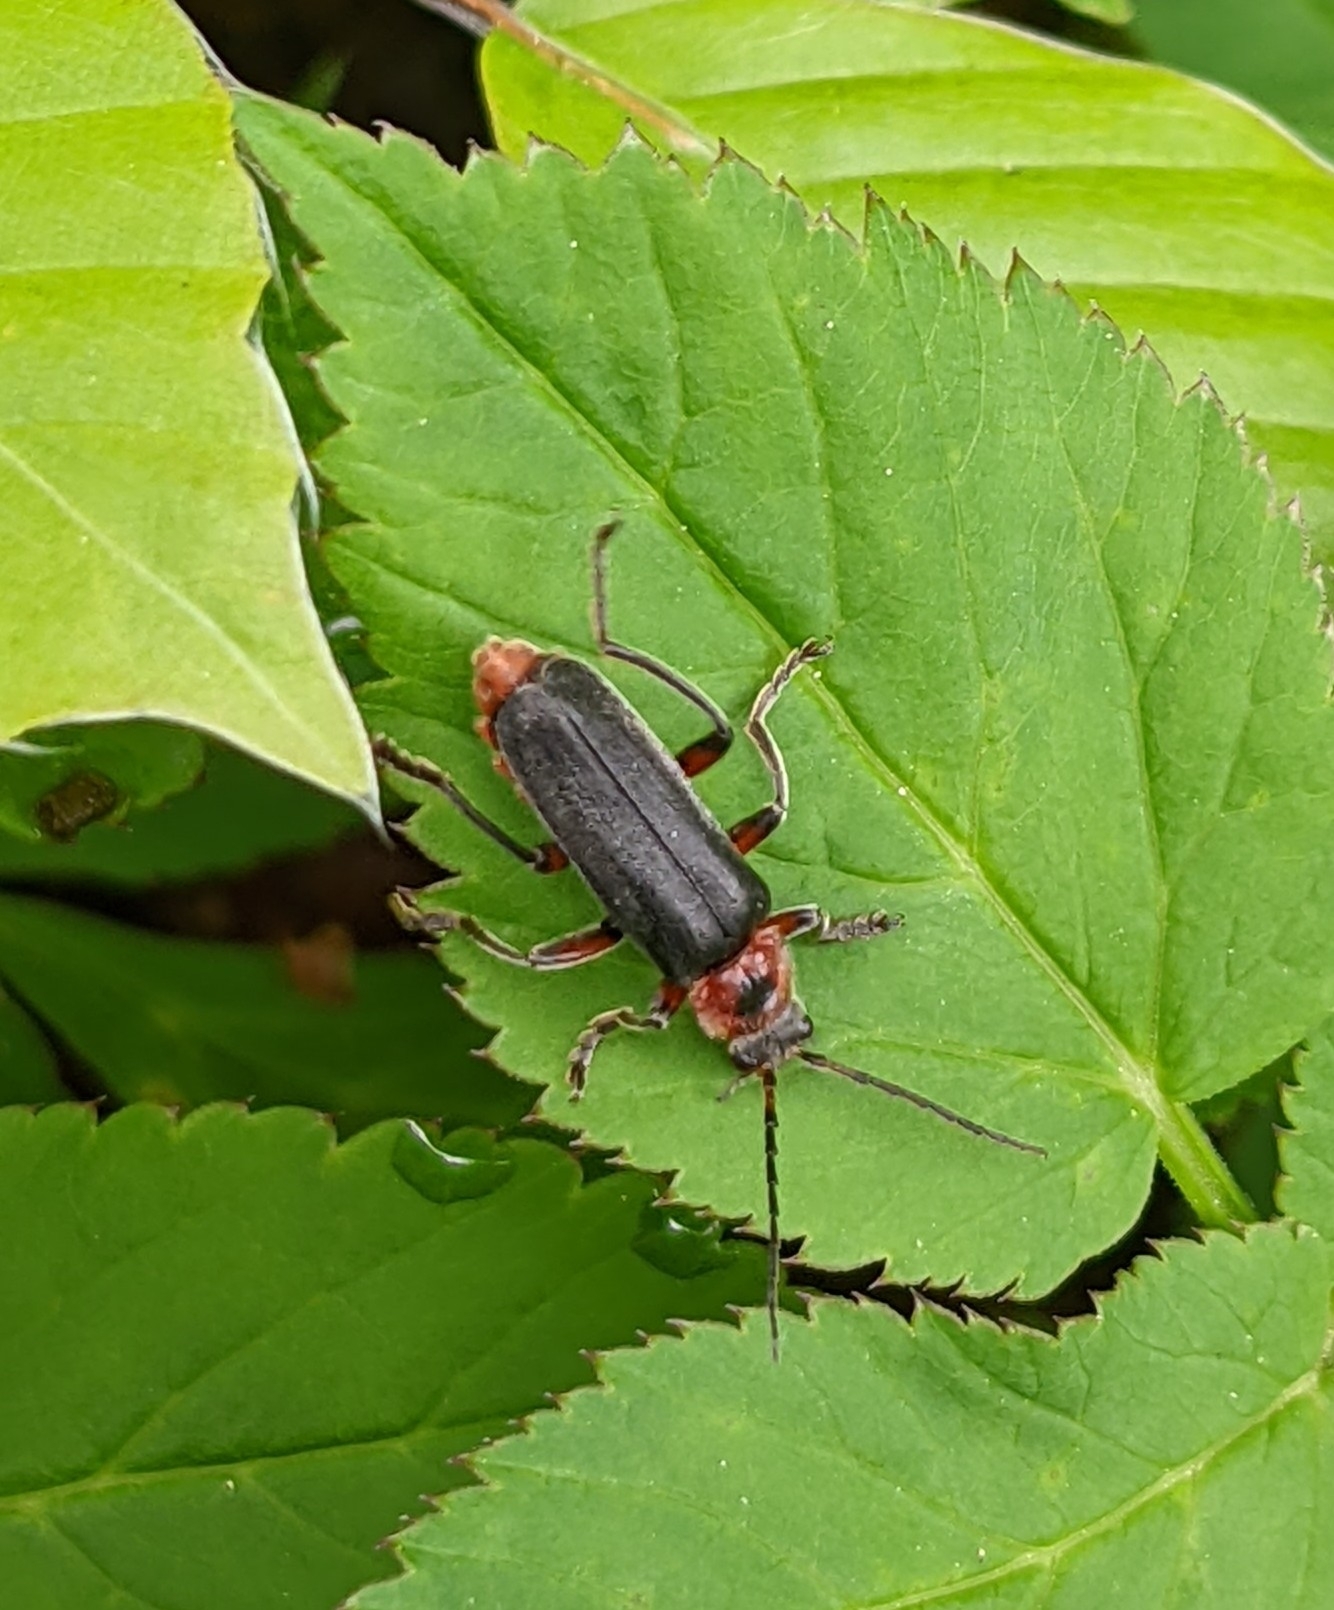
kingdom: Animalia
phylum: Arthropoda
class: Insecta
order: Coleoptera
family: Cantharidae
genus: Cantharis
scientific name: Cantharis rustica
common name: Soldier beetle
